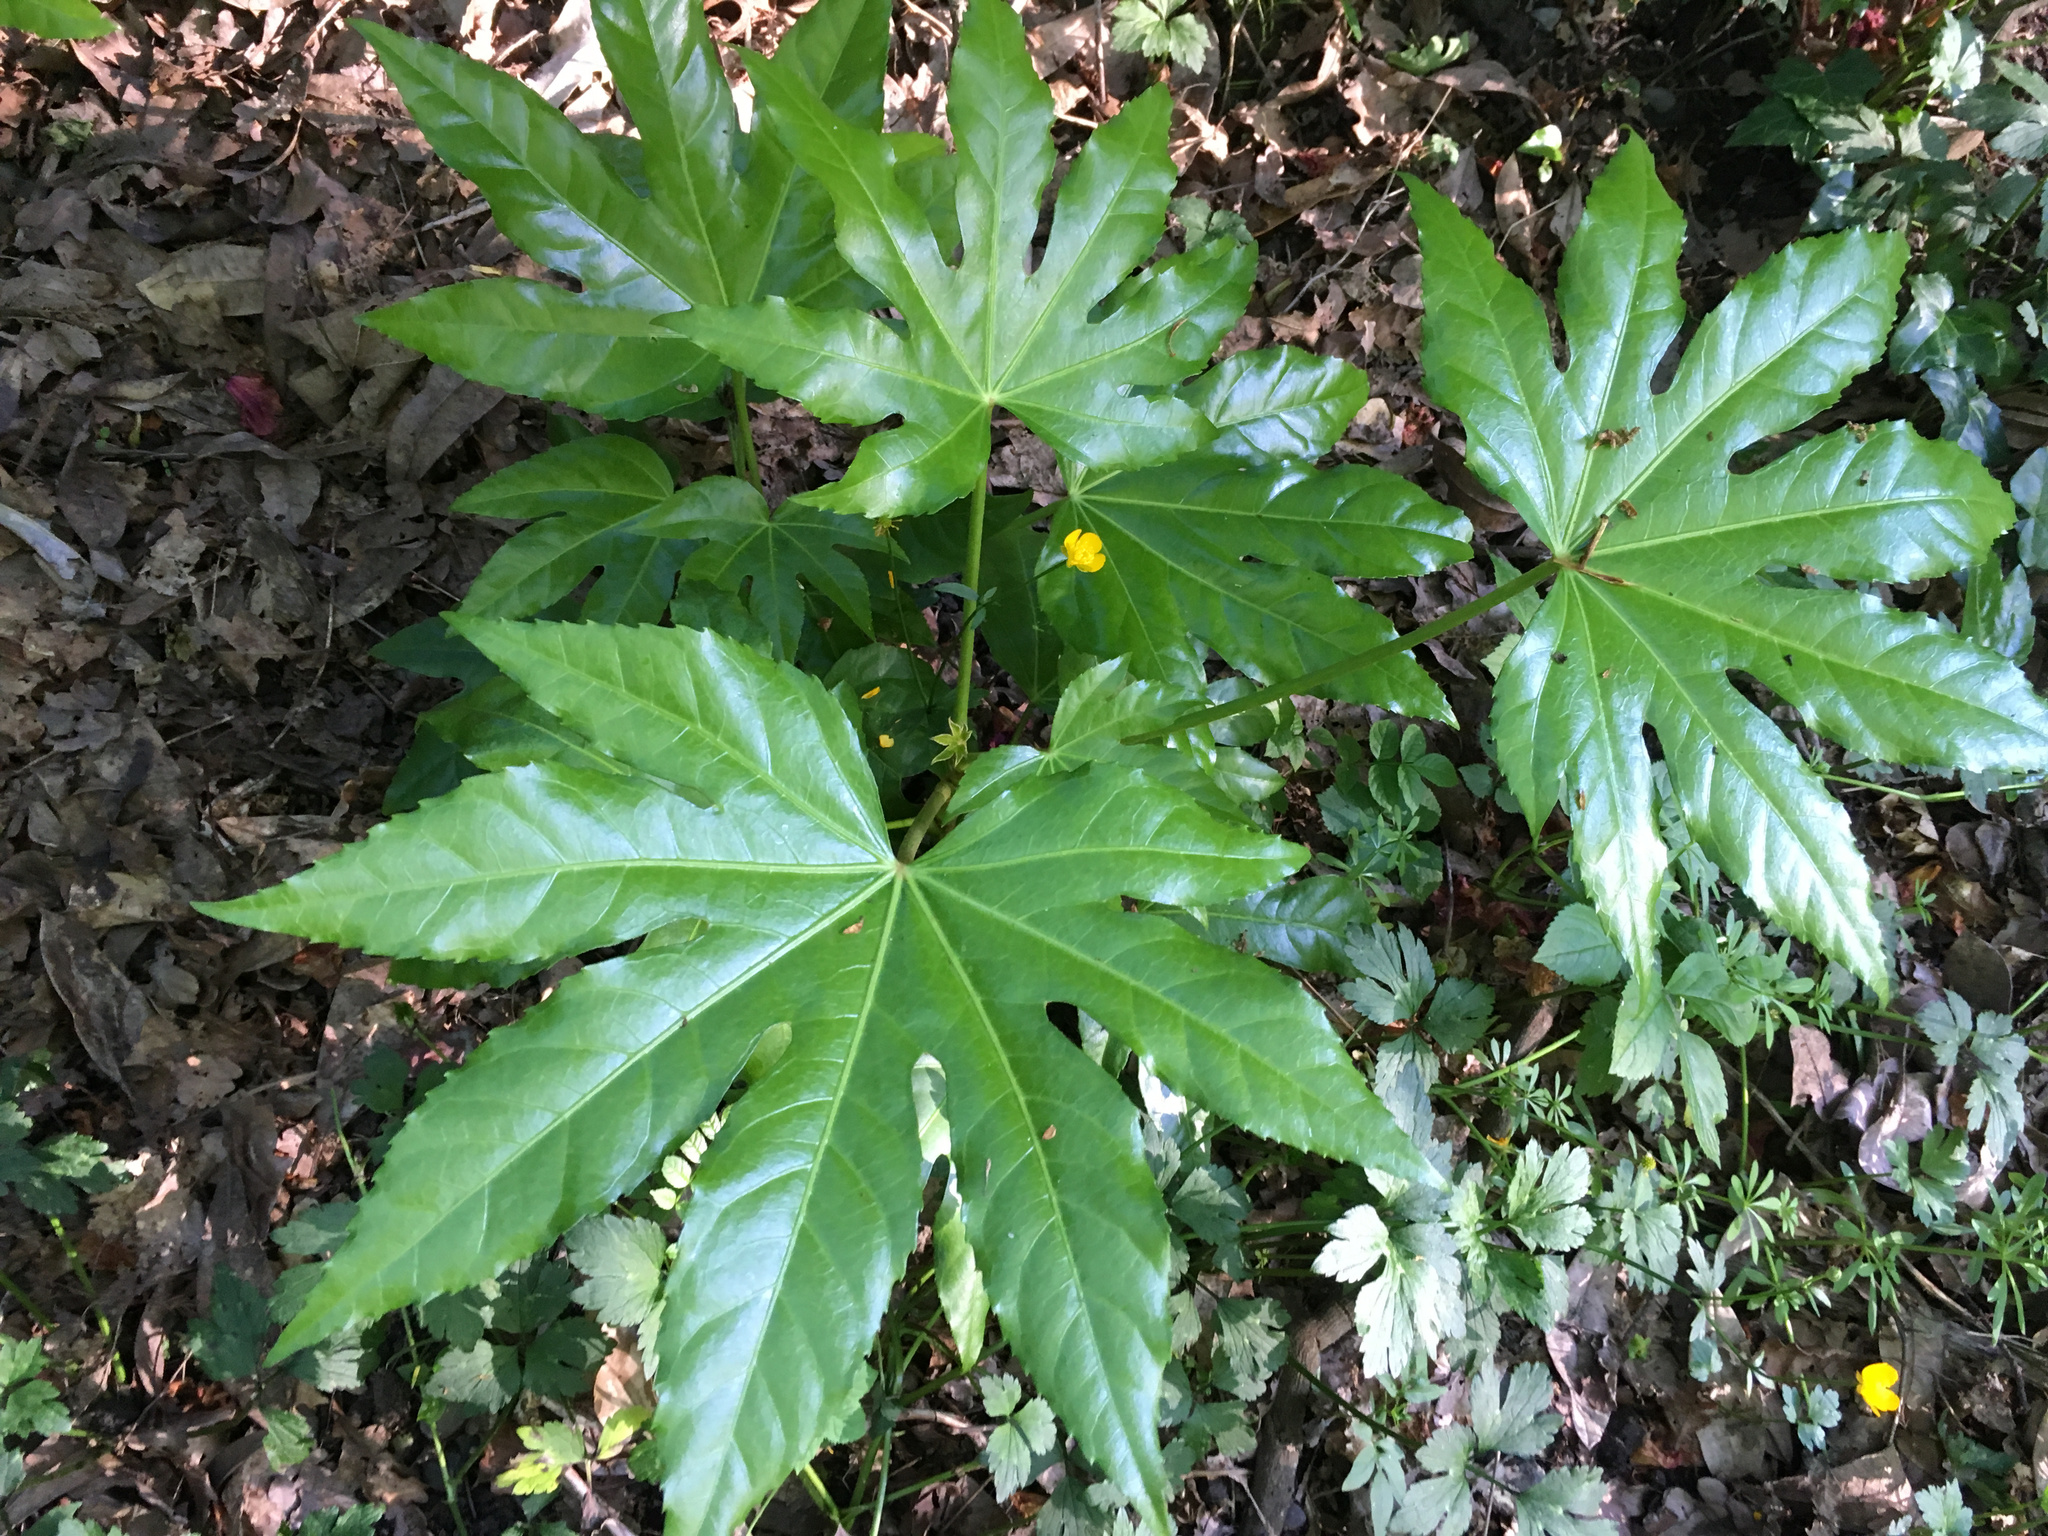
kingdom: Plantae
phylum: Tracheophyta
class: Magnoliopsida
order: Apiales
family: Araliaceae
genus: Fatsia
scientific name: Fatsia japonica
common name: Fatsia
